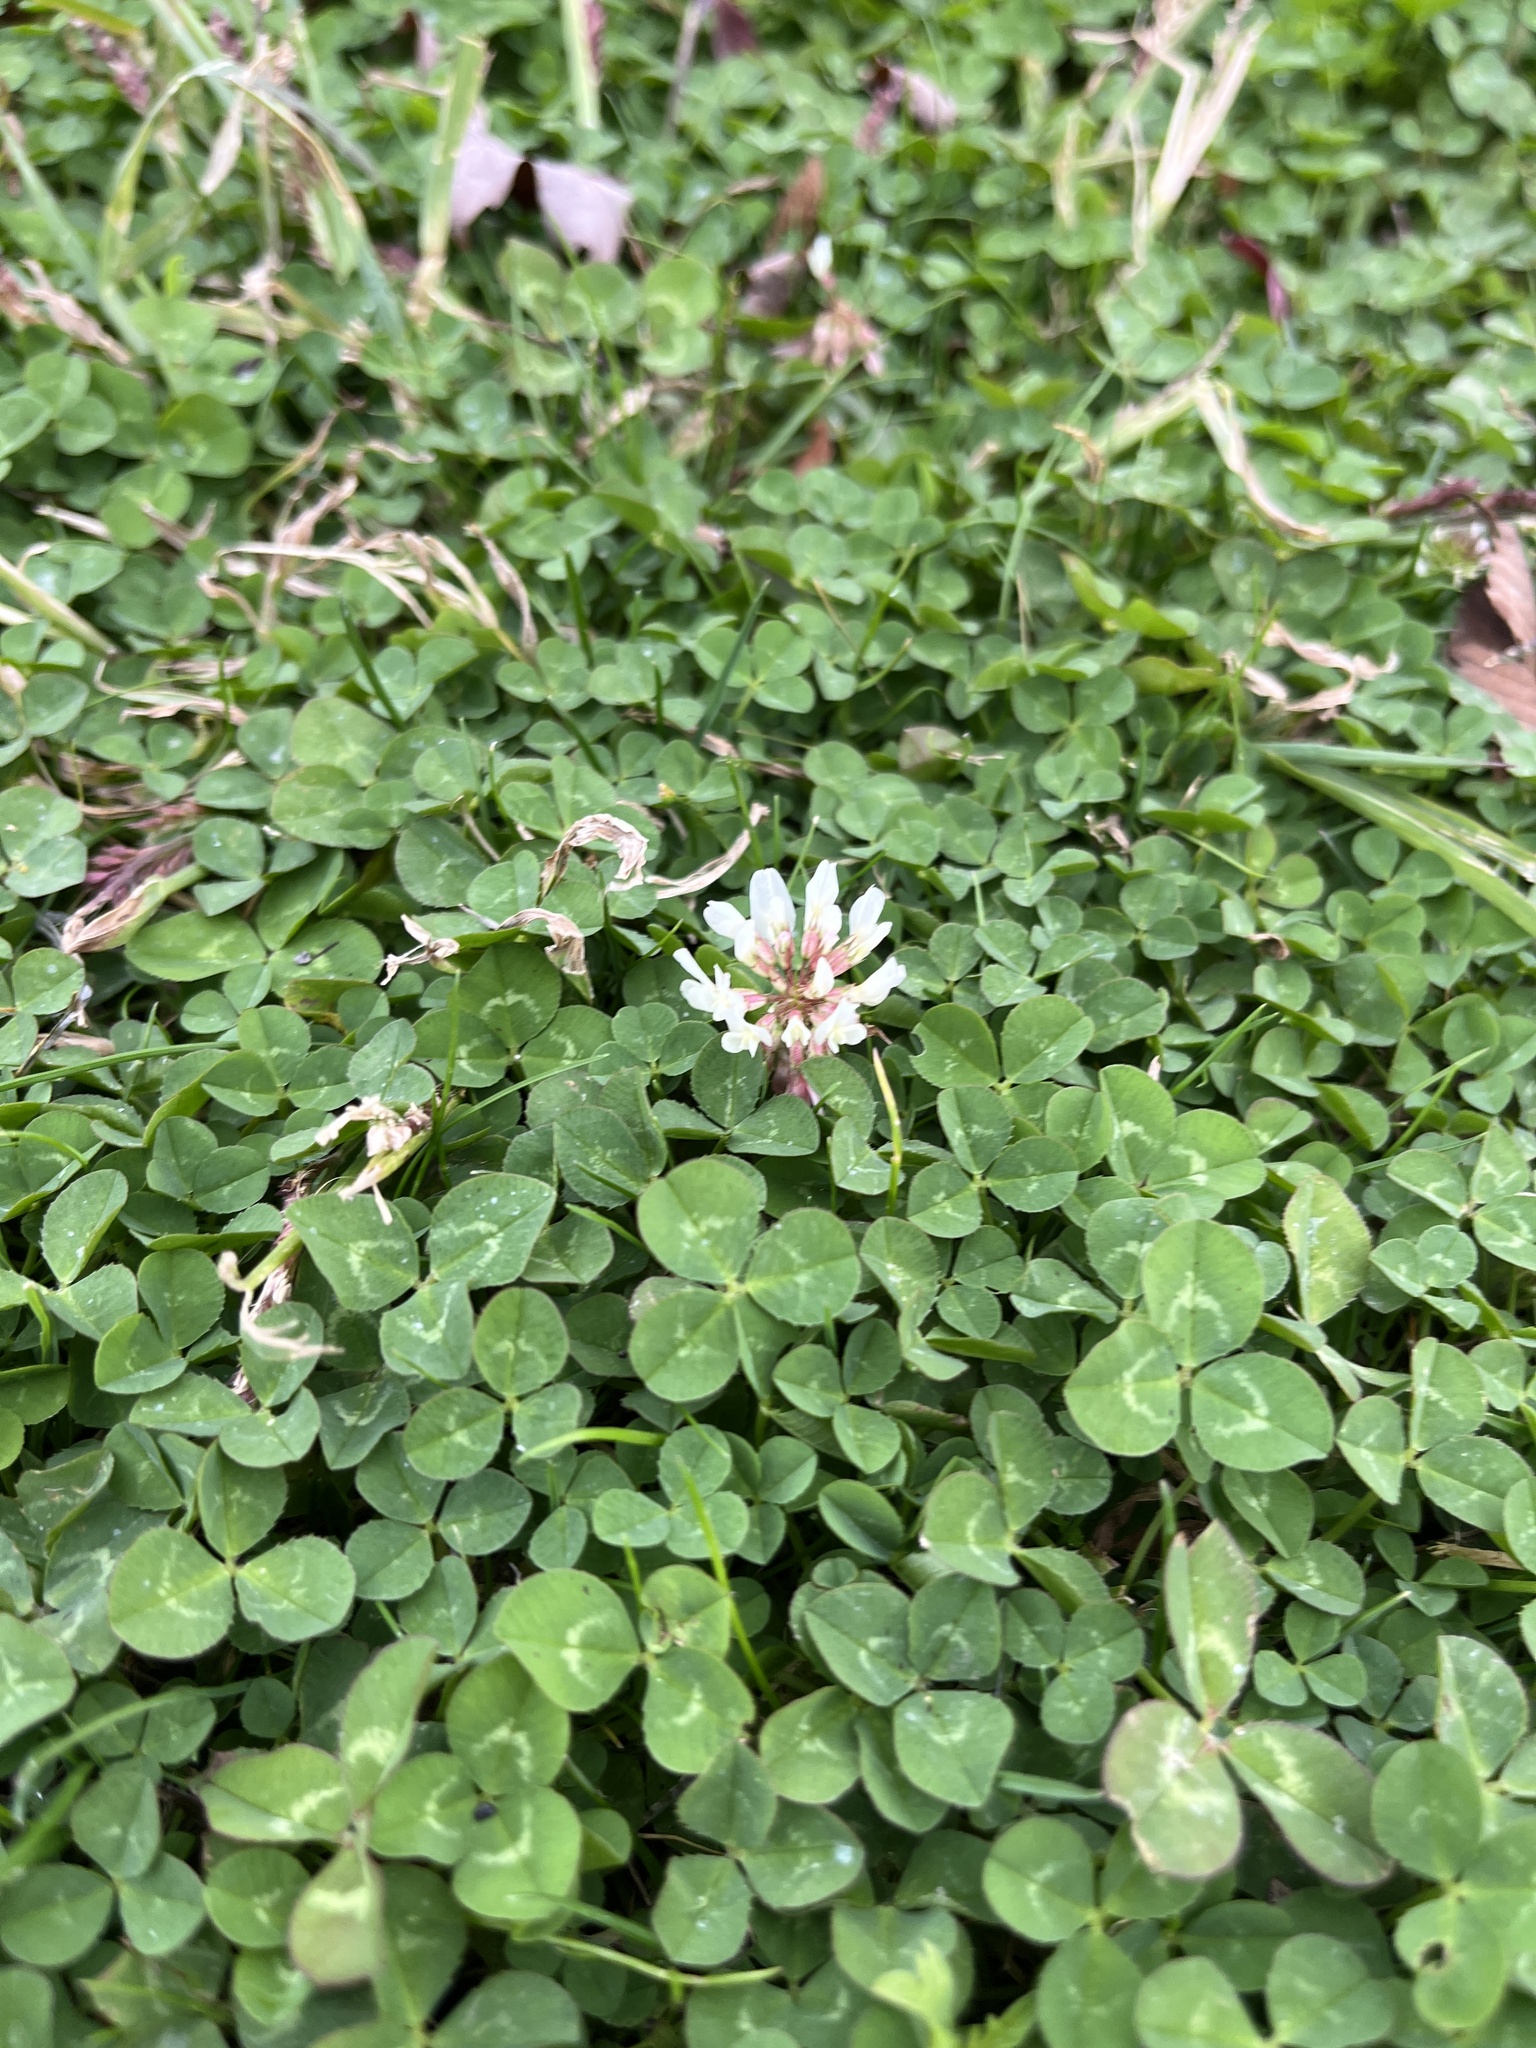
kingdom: Plantae
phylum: Tracheophyta
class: Magnoliopsida
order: Fabales
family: Fabaceae
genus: Trifolium
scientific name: Trifolium repens
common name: White clover
